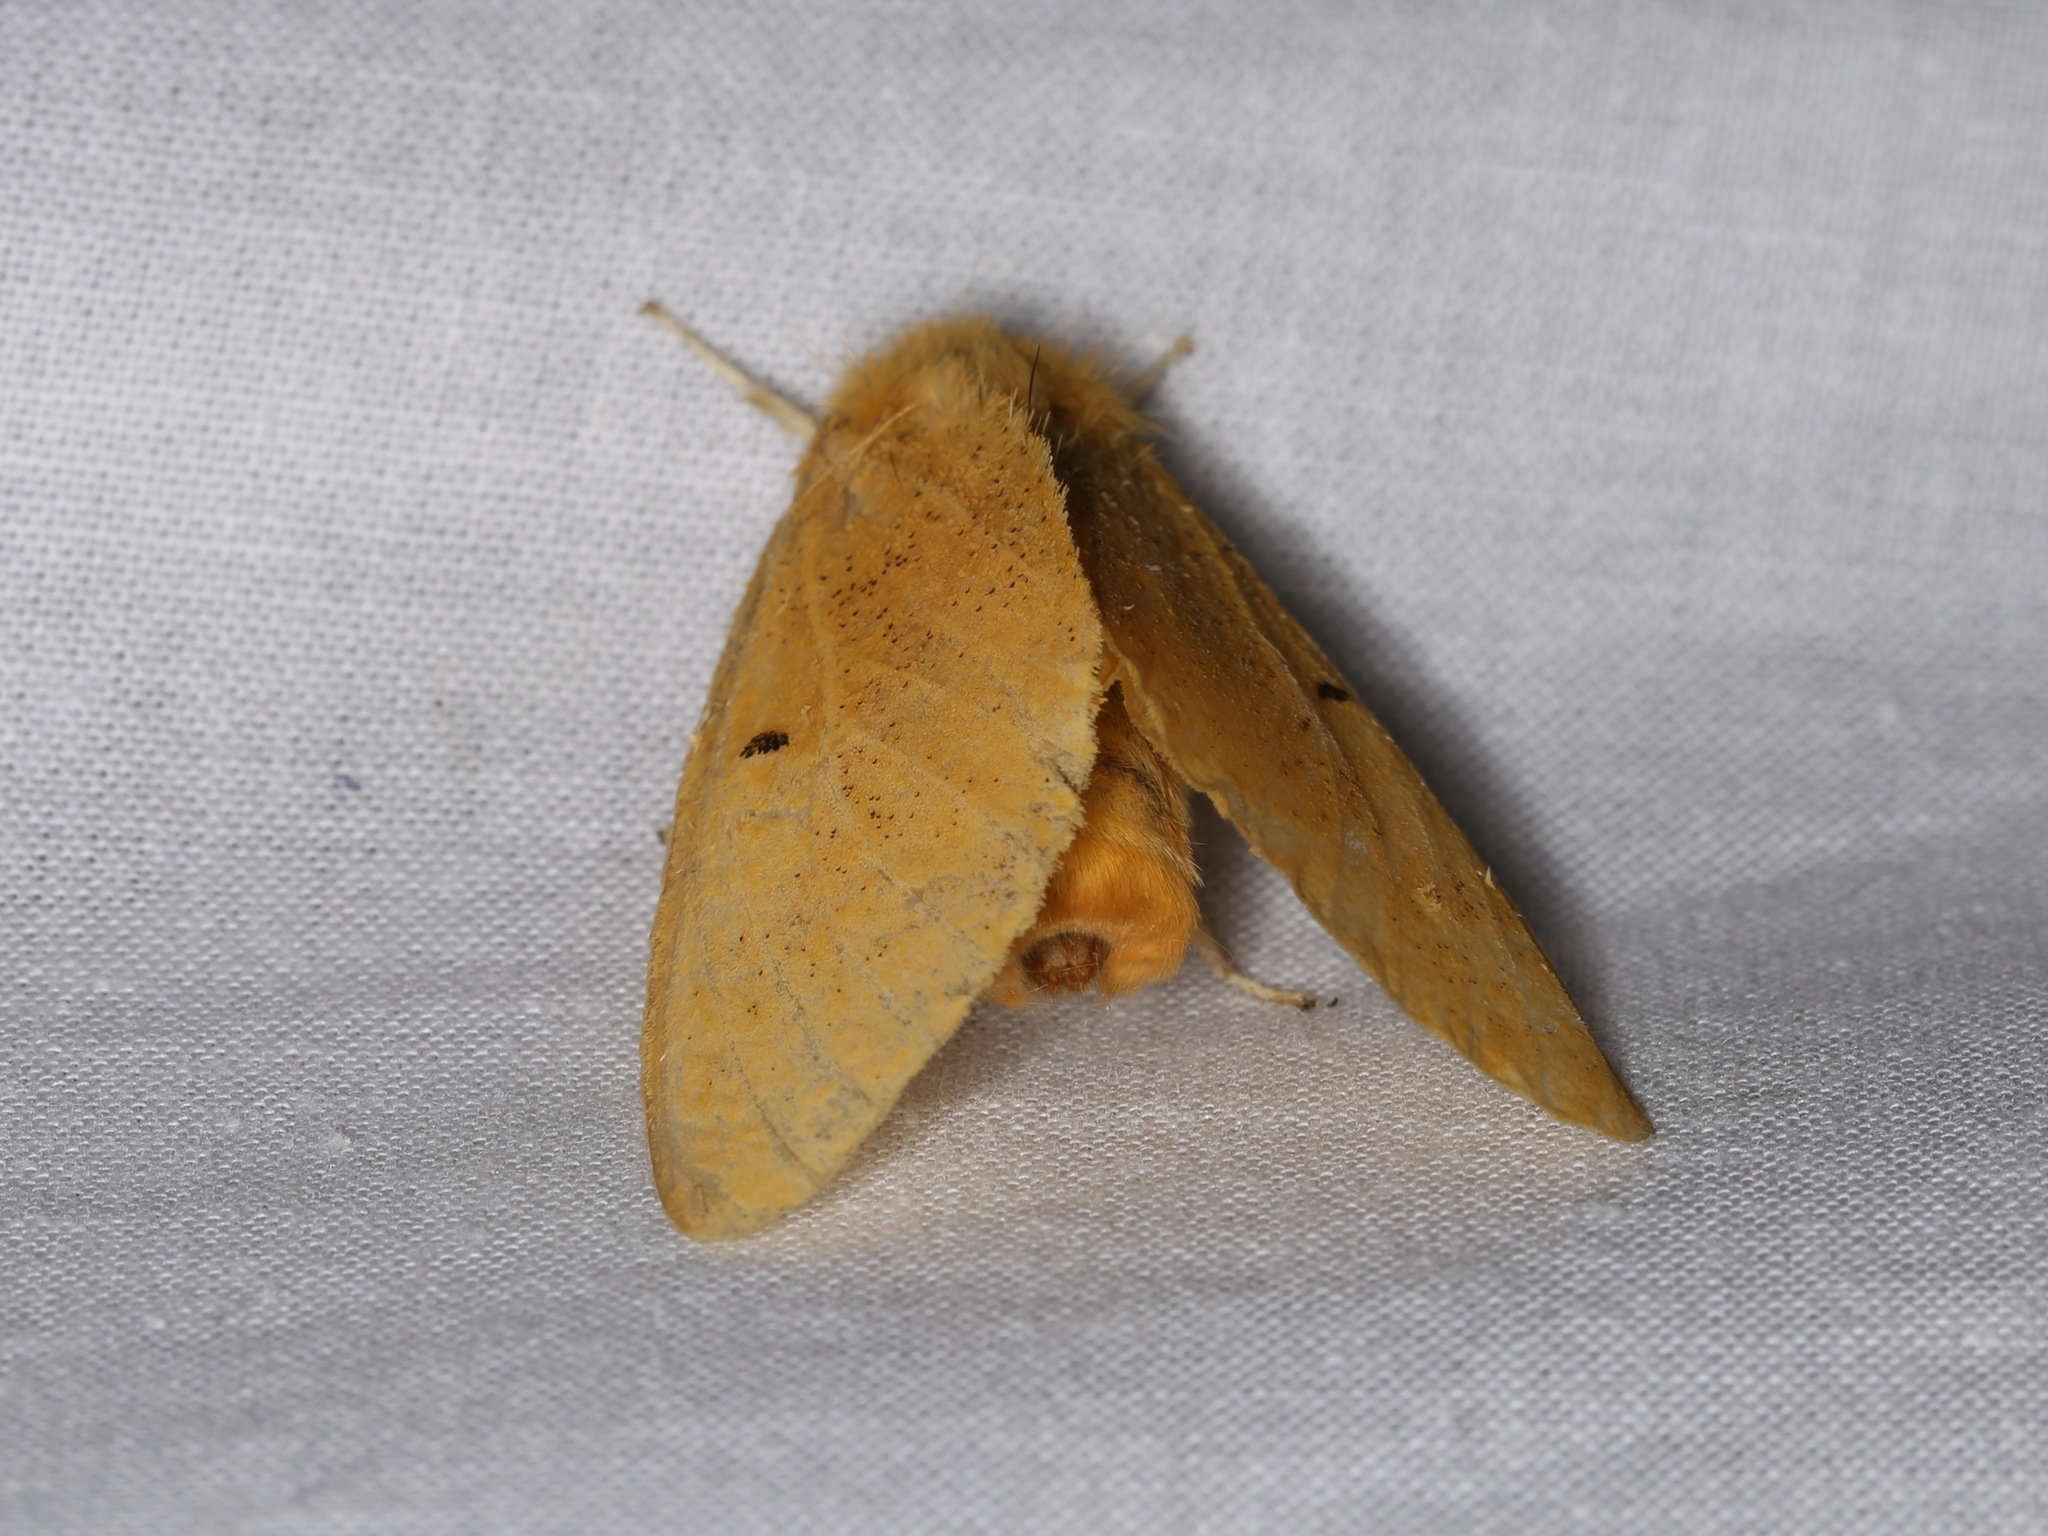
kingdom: Animalia
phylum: Arthropoda
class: Insecta
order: Lepidoptera
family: Erebidae
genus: Nygmia
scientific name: Nygmia plana
